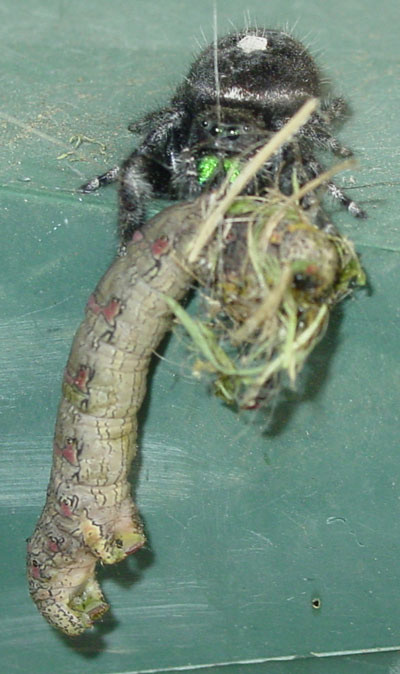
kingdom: Animalia
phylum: Arthropoda
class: Arachnida
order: Araneae
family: Salticidae
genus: Phidippus
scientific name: Phidippus audax
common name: Bold jumper
